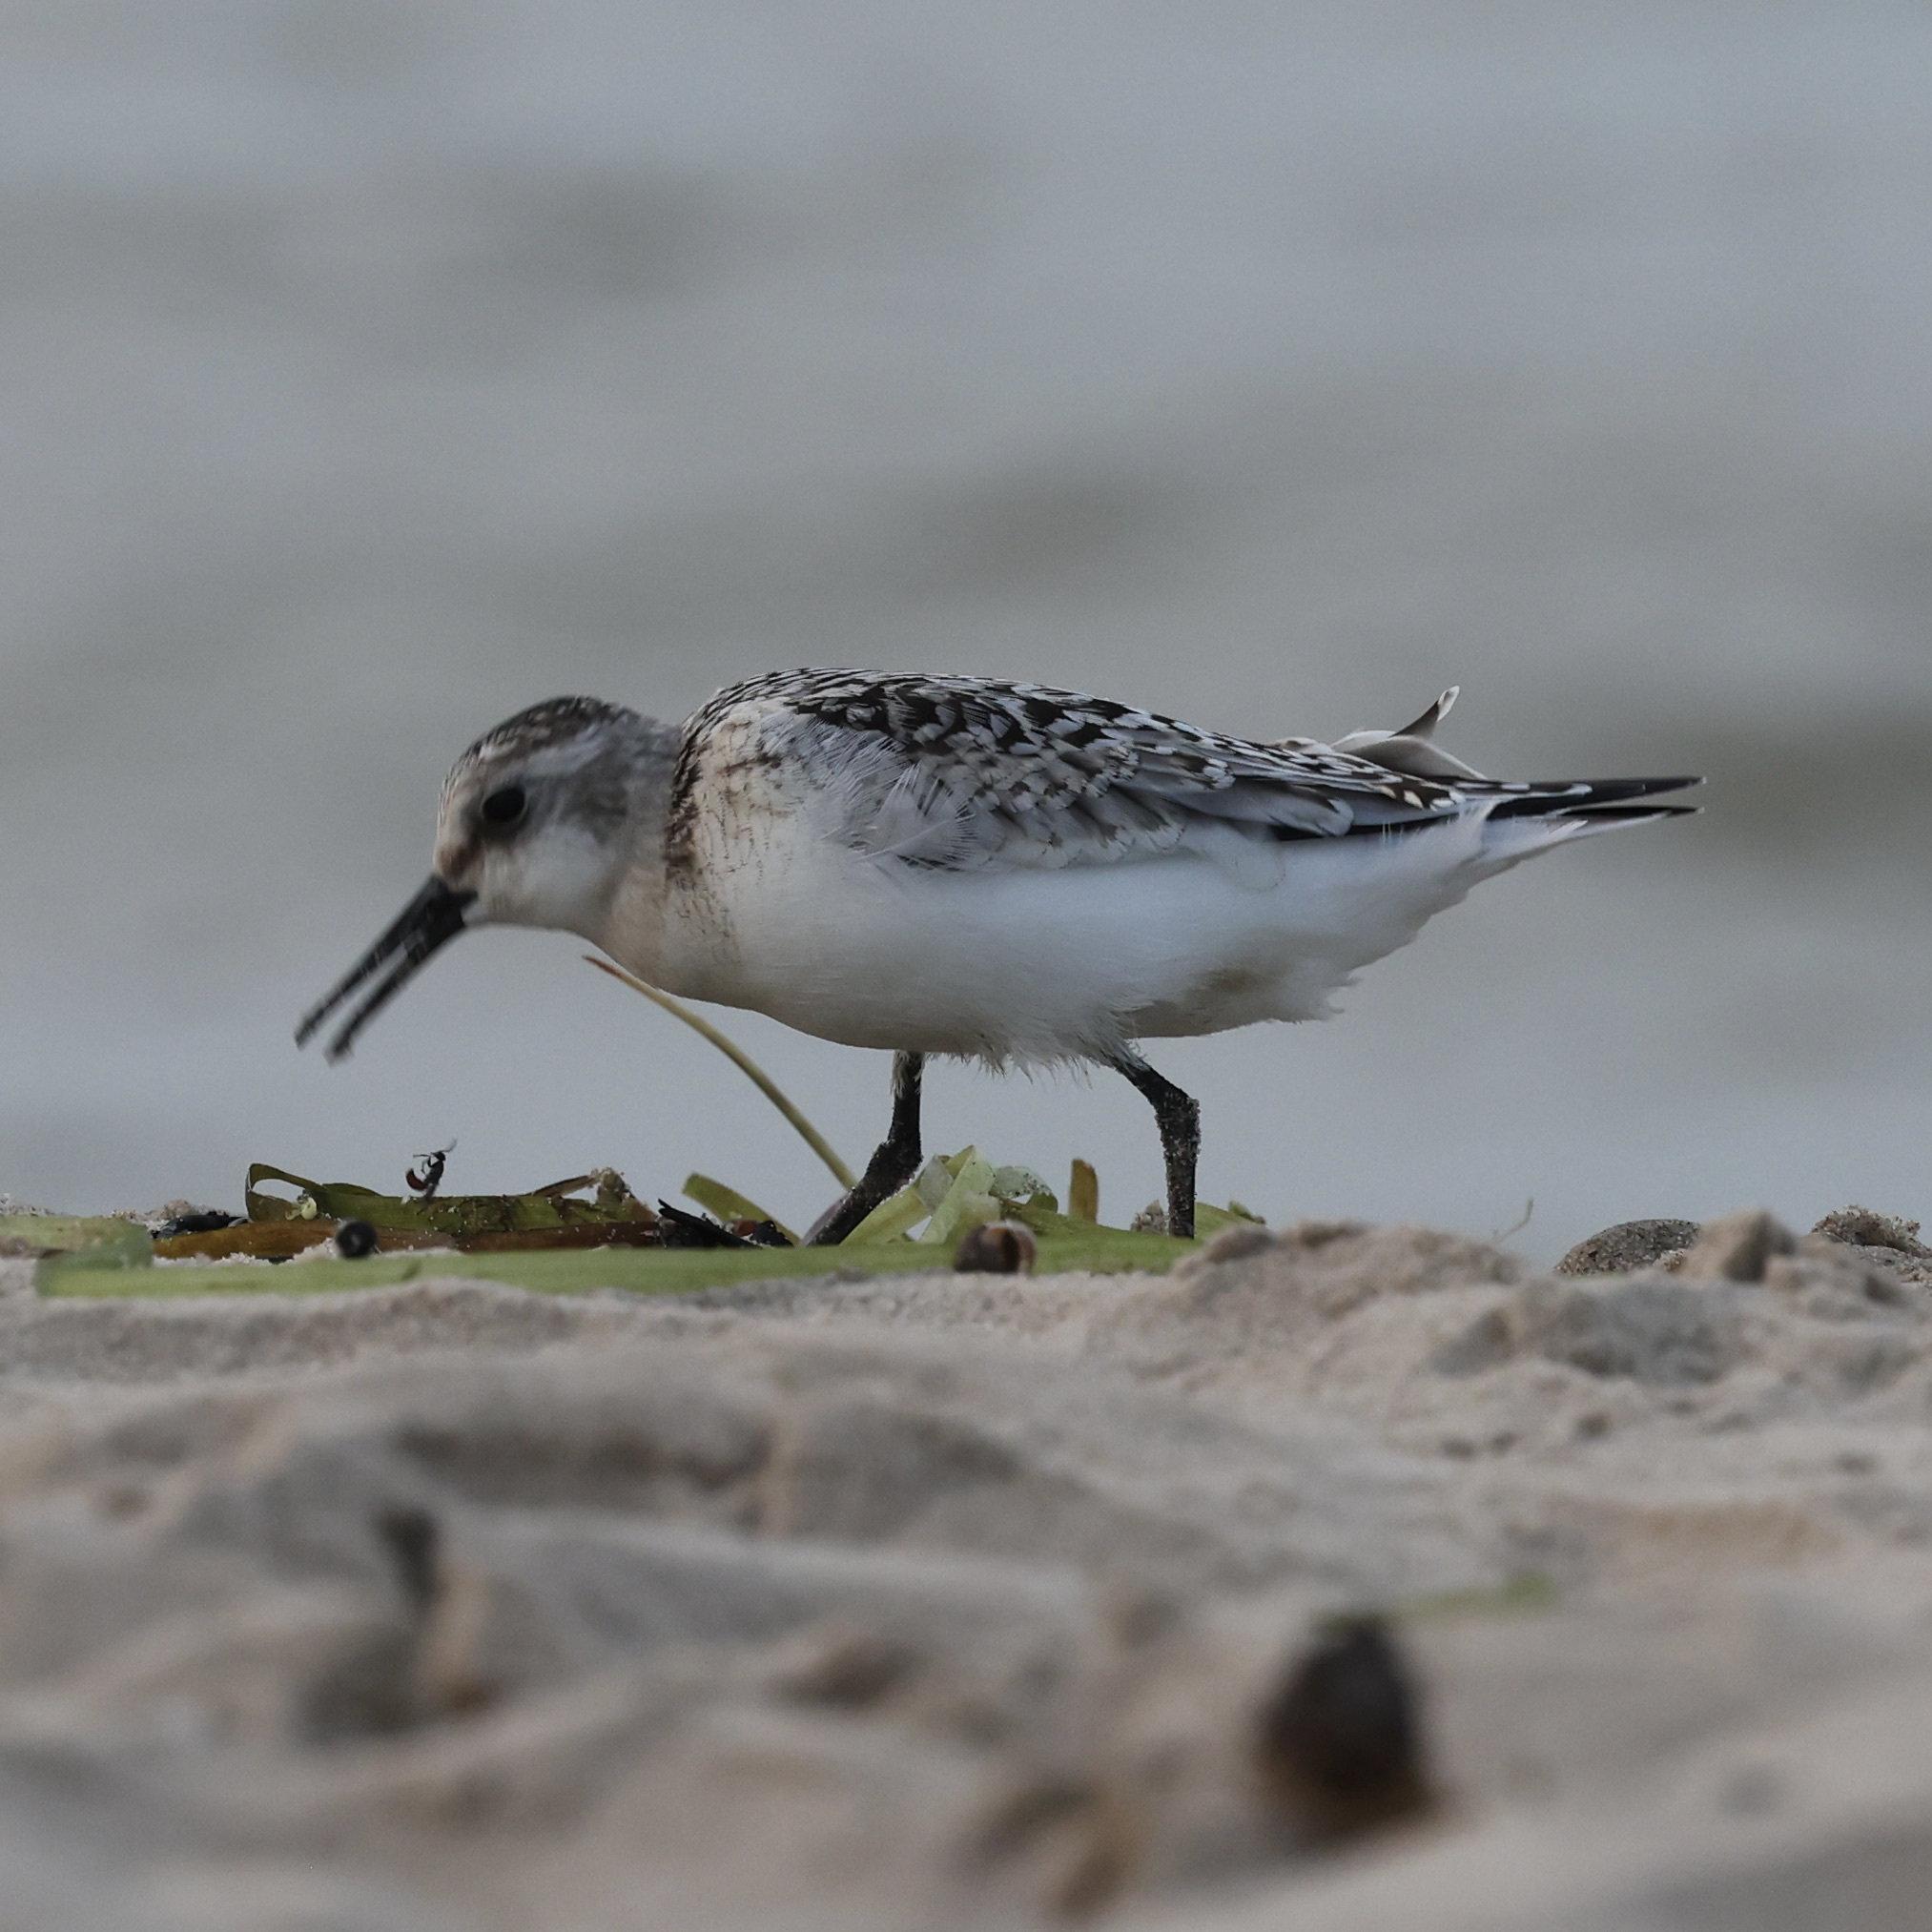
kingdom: Animalia
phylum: Chordata
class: Aves
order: Charadriiformes
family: Scolopacidae
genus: Calidris
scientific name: Calidris alba
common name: Sanderling
